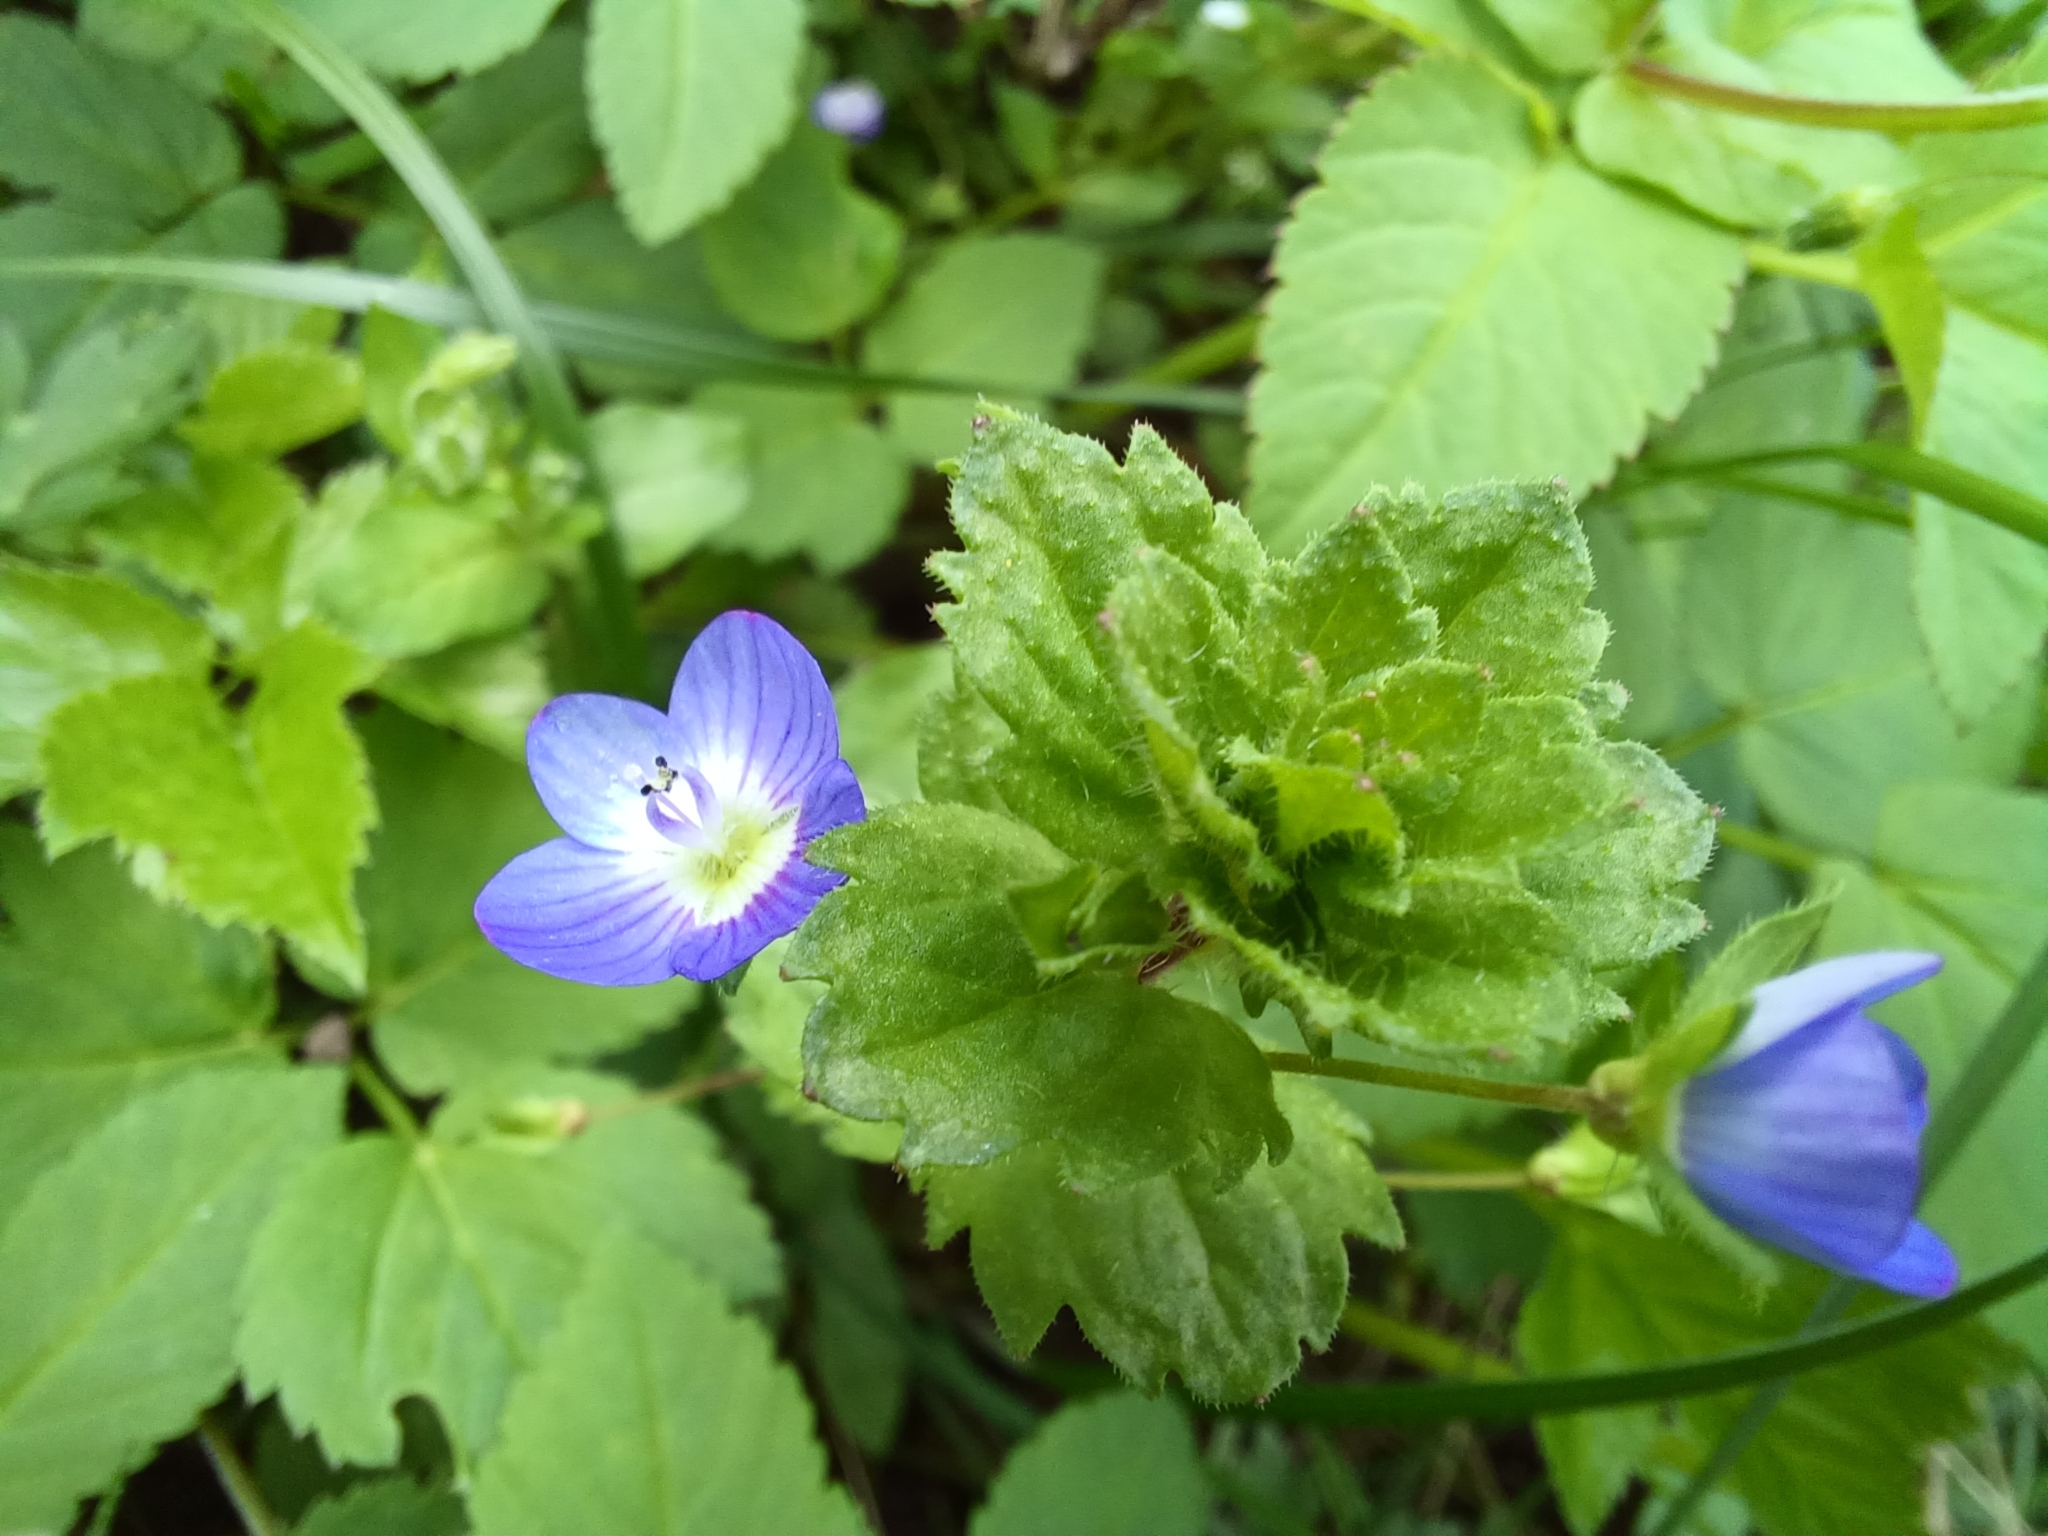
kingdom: Plantae
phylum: Tracheophyta
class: Magnoliopsida
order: Lamiales
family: Plantaginaceae
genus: Veronica
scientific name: Veronica persica
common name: Common field-speedwell
